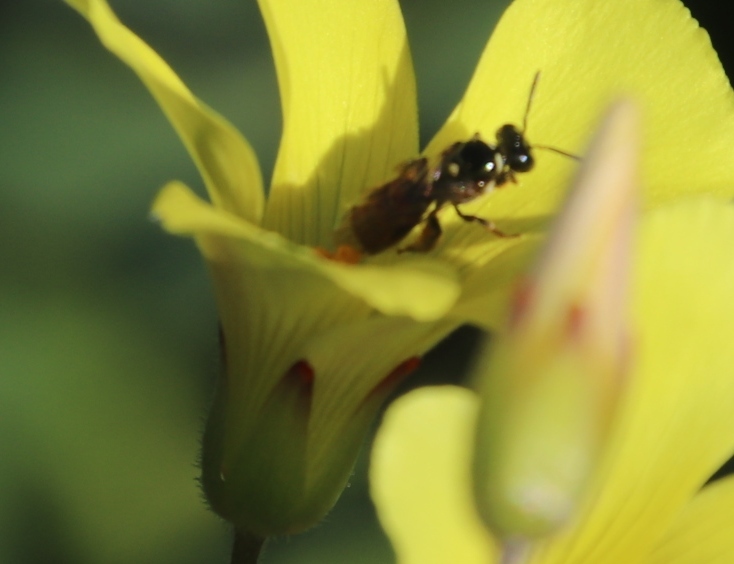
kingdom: Plantae
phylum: Tracheophyta
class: Magnoliopsida
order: Oxalidales
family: Oxalidaceae
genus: Oxalis
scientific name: Oxalis pes-caprae
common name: Bermuda-buttercup
